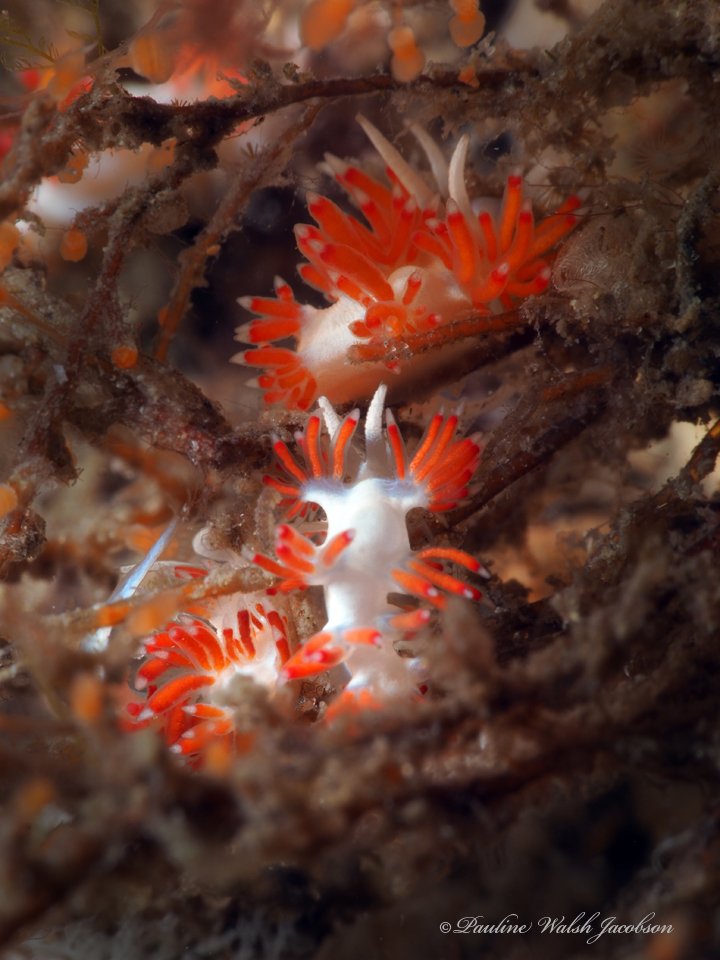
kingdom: Animalia
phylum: Mollusca
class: Gastropoda
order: Nudibranchia
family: Flabellinidae
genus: Flabellina
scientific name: Flabellina dushia
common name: Dushia flabellina
